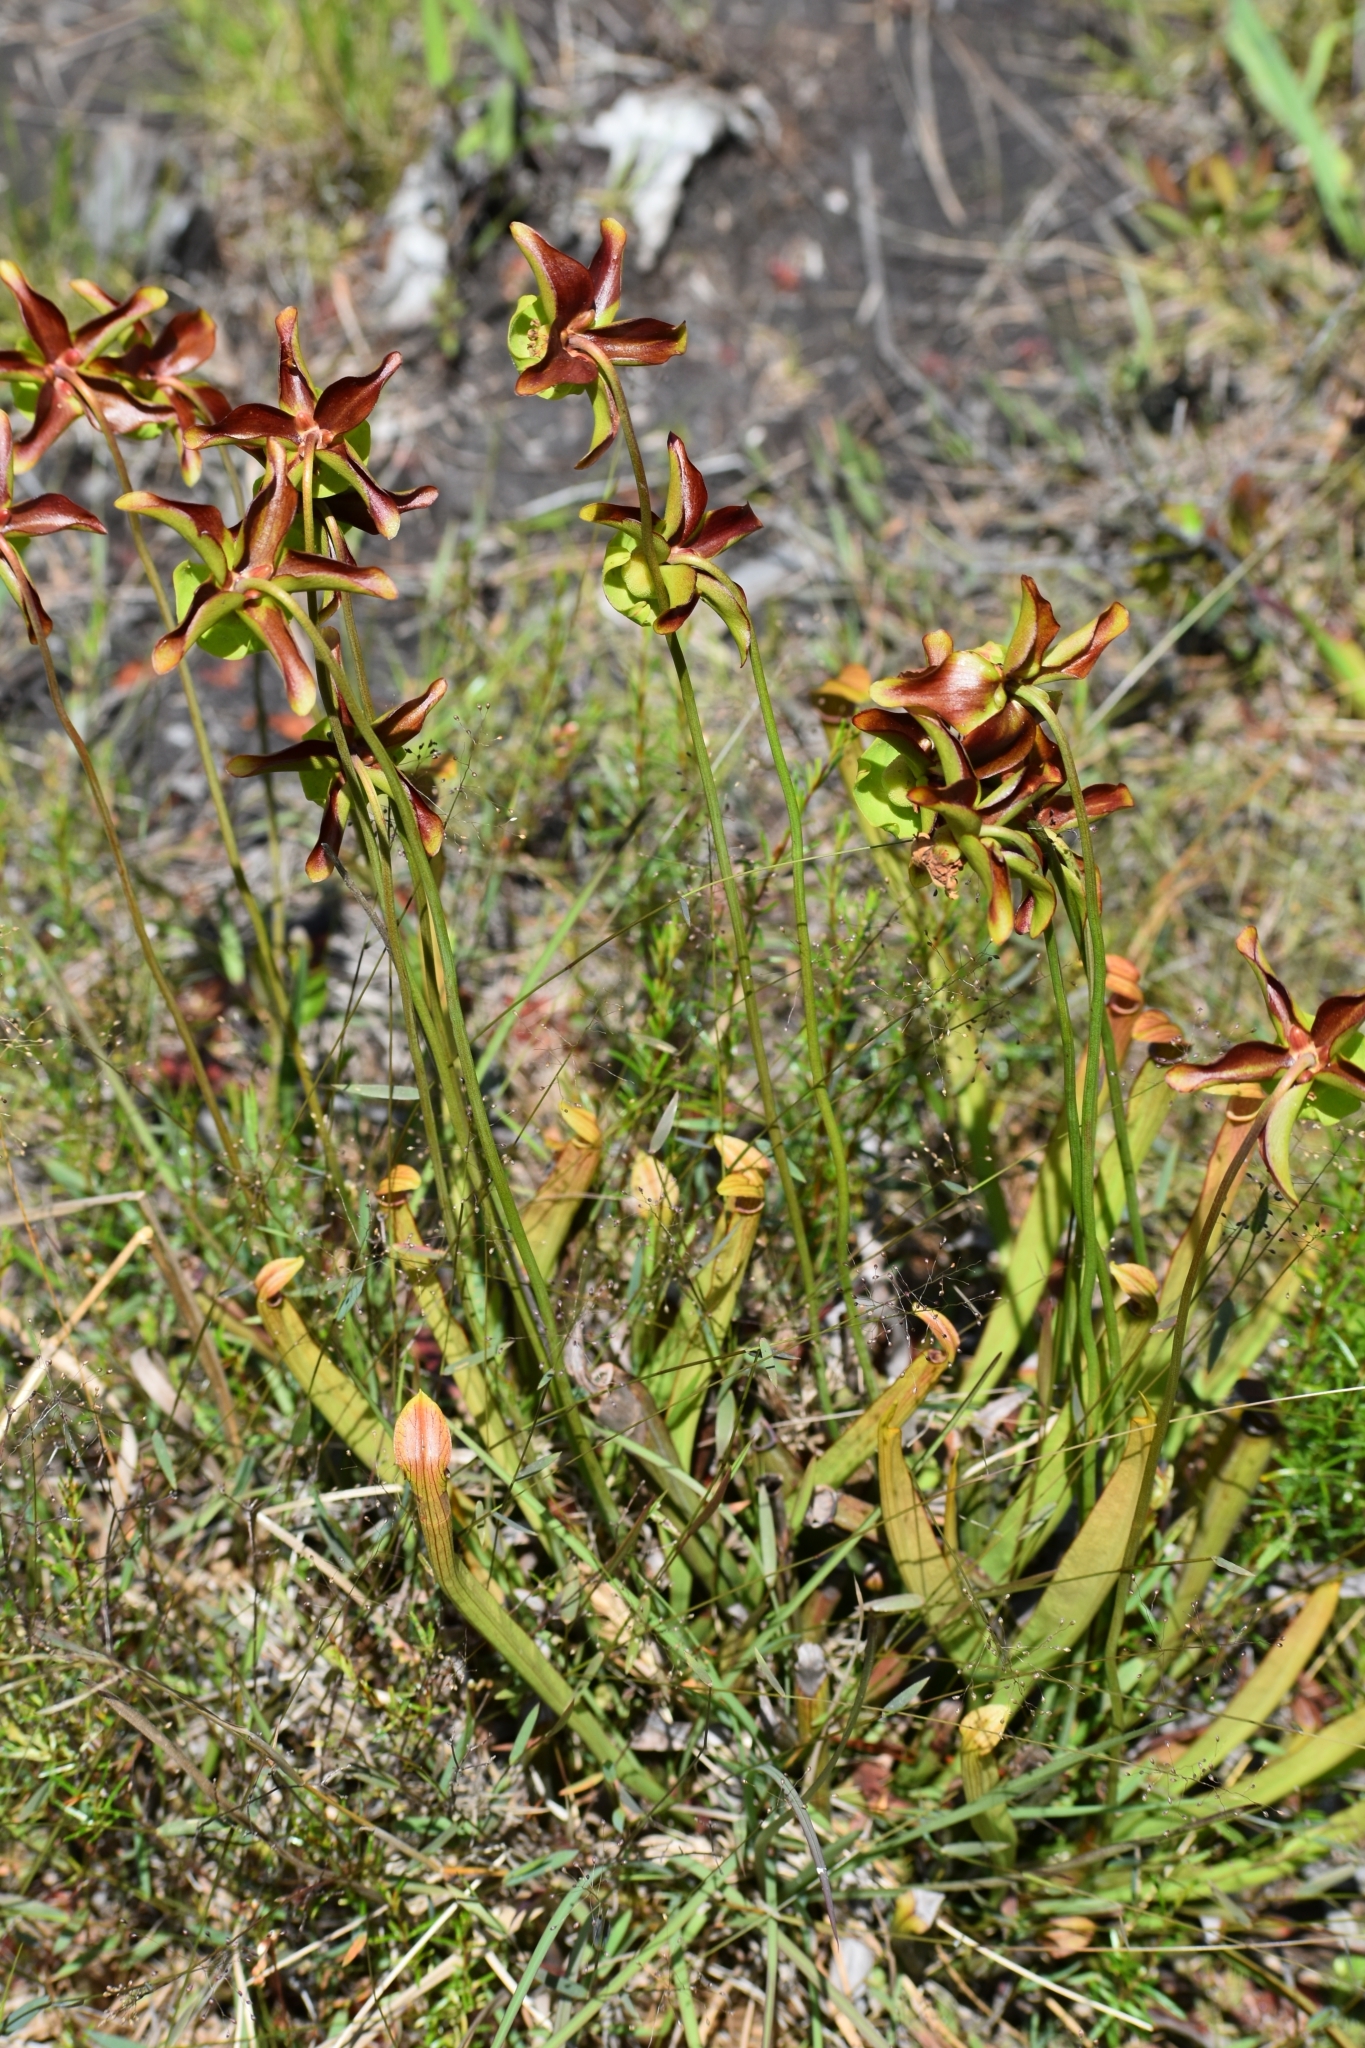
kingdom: Plantae
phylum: Tracheophyta
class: Magnoliopsida
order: Ericales
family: Sarraceniaceae
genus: Sarracenia
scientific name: Sarracenia rubra
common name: Sweet pitcherplant
